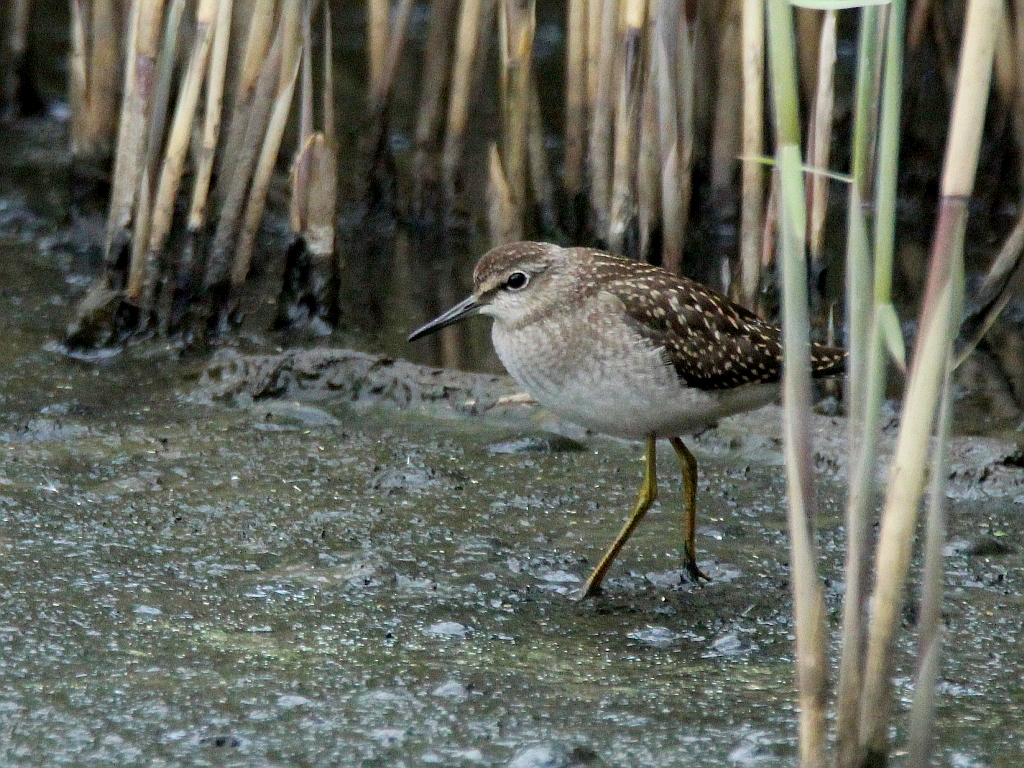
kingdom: Animalia
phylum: Chordata
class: Aves
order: Charadriiformes
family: Scolopacidae
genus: Tringa
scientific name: Tringa glareola
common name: Wood sandpiper
